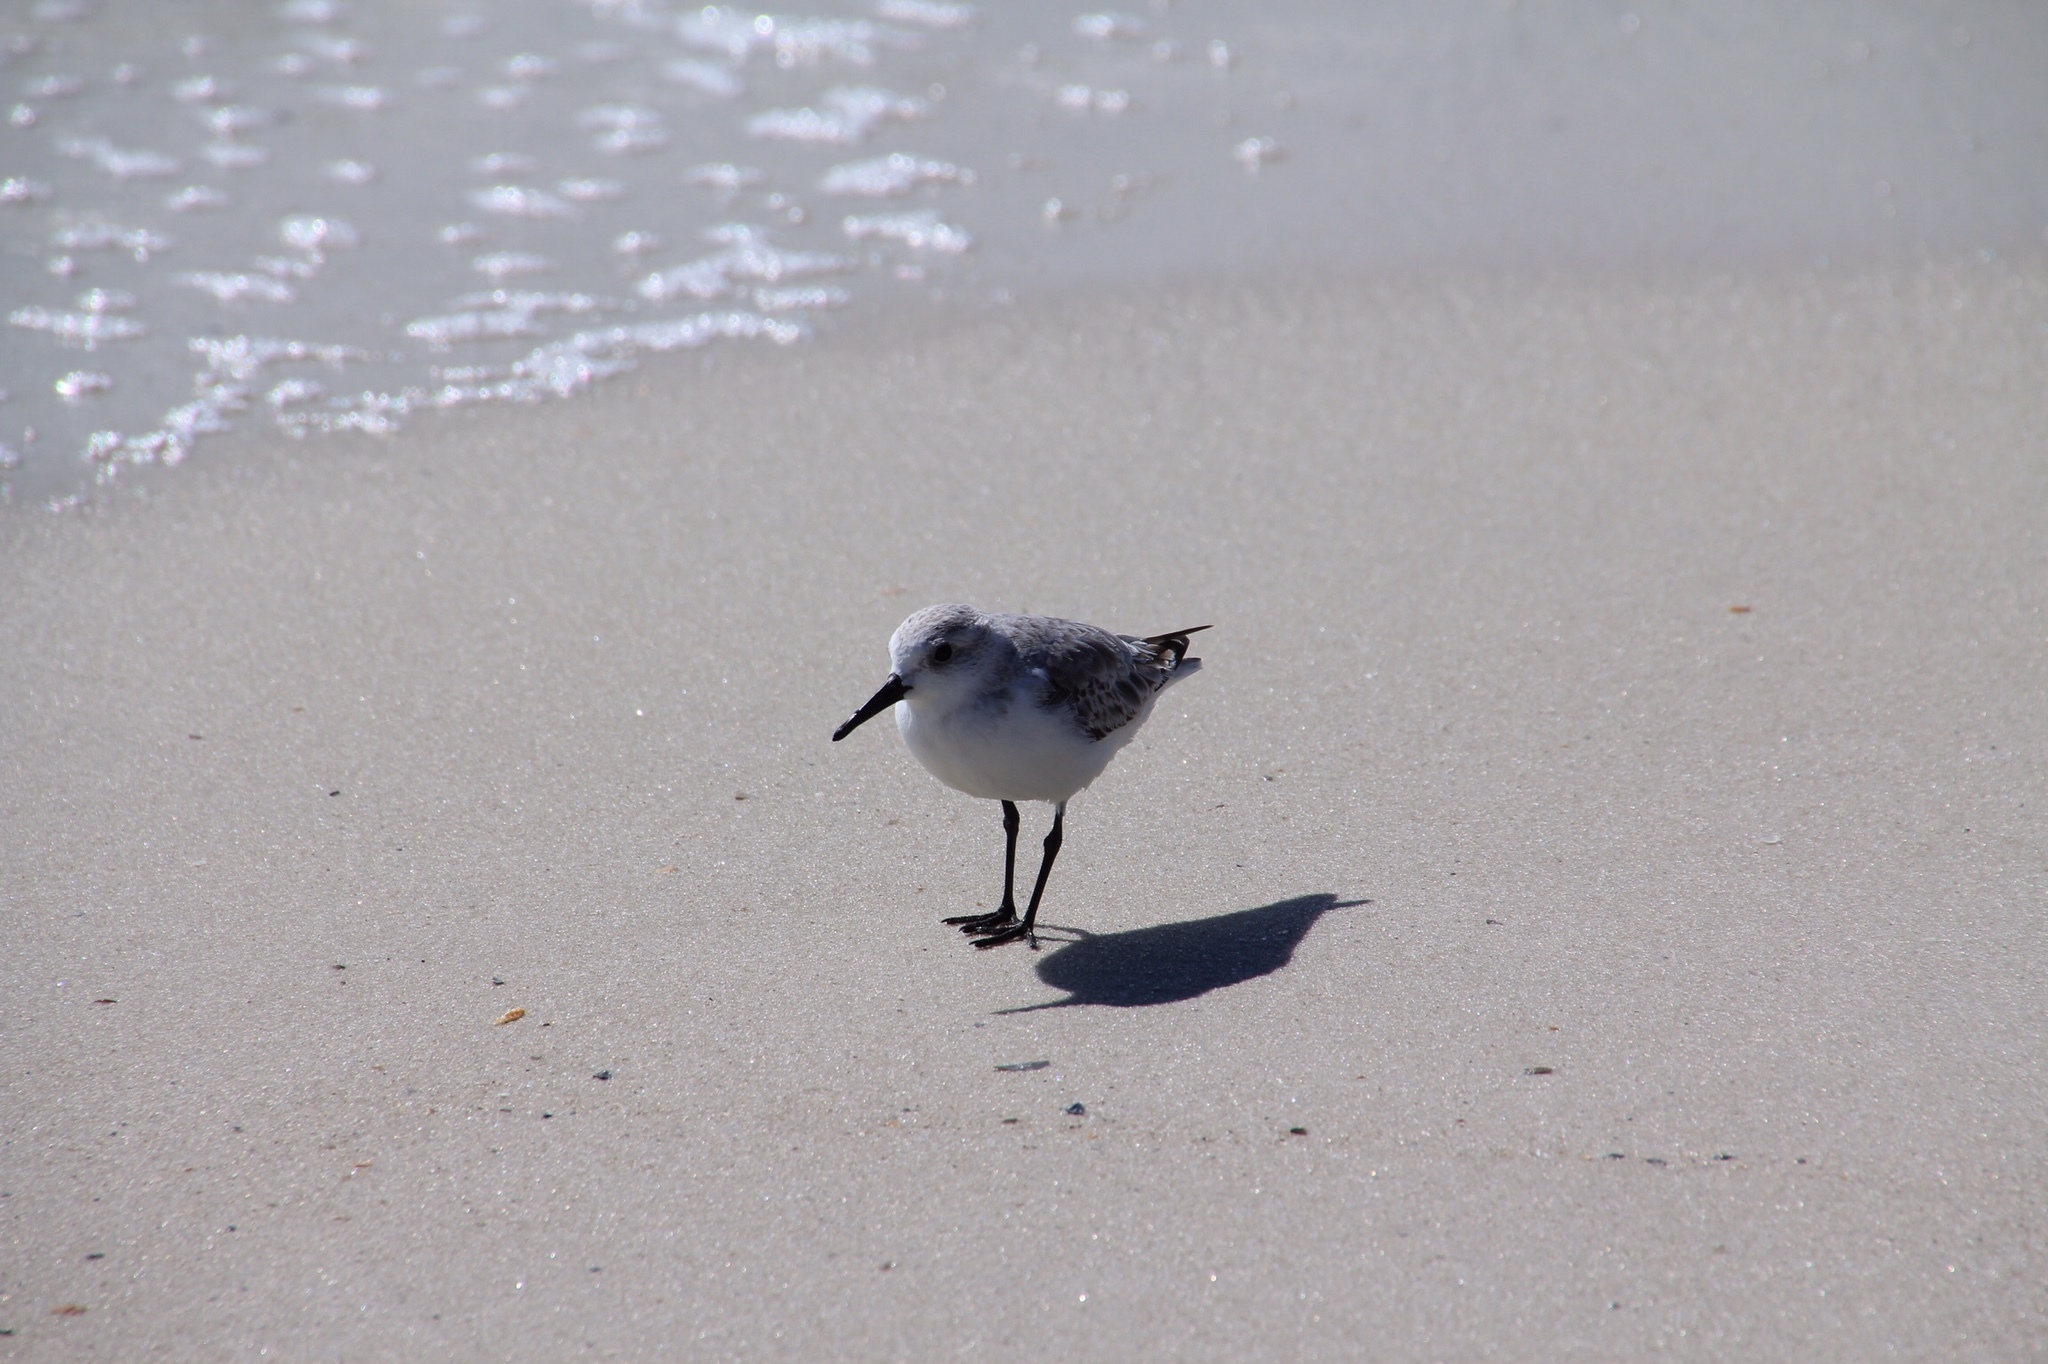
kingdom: Animalia
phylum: Chordata
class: Aves
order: Charadriiformes
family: Scolopacidae
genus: Calidris
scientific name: Calidris alba
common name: Sanderling
